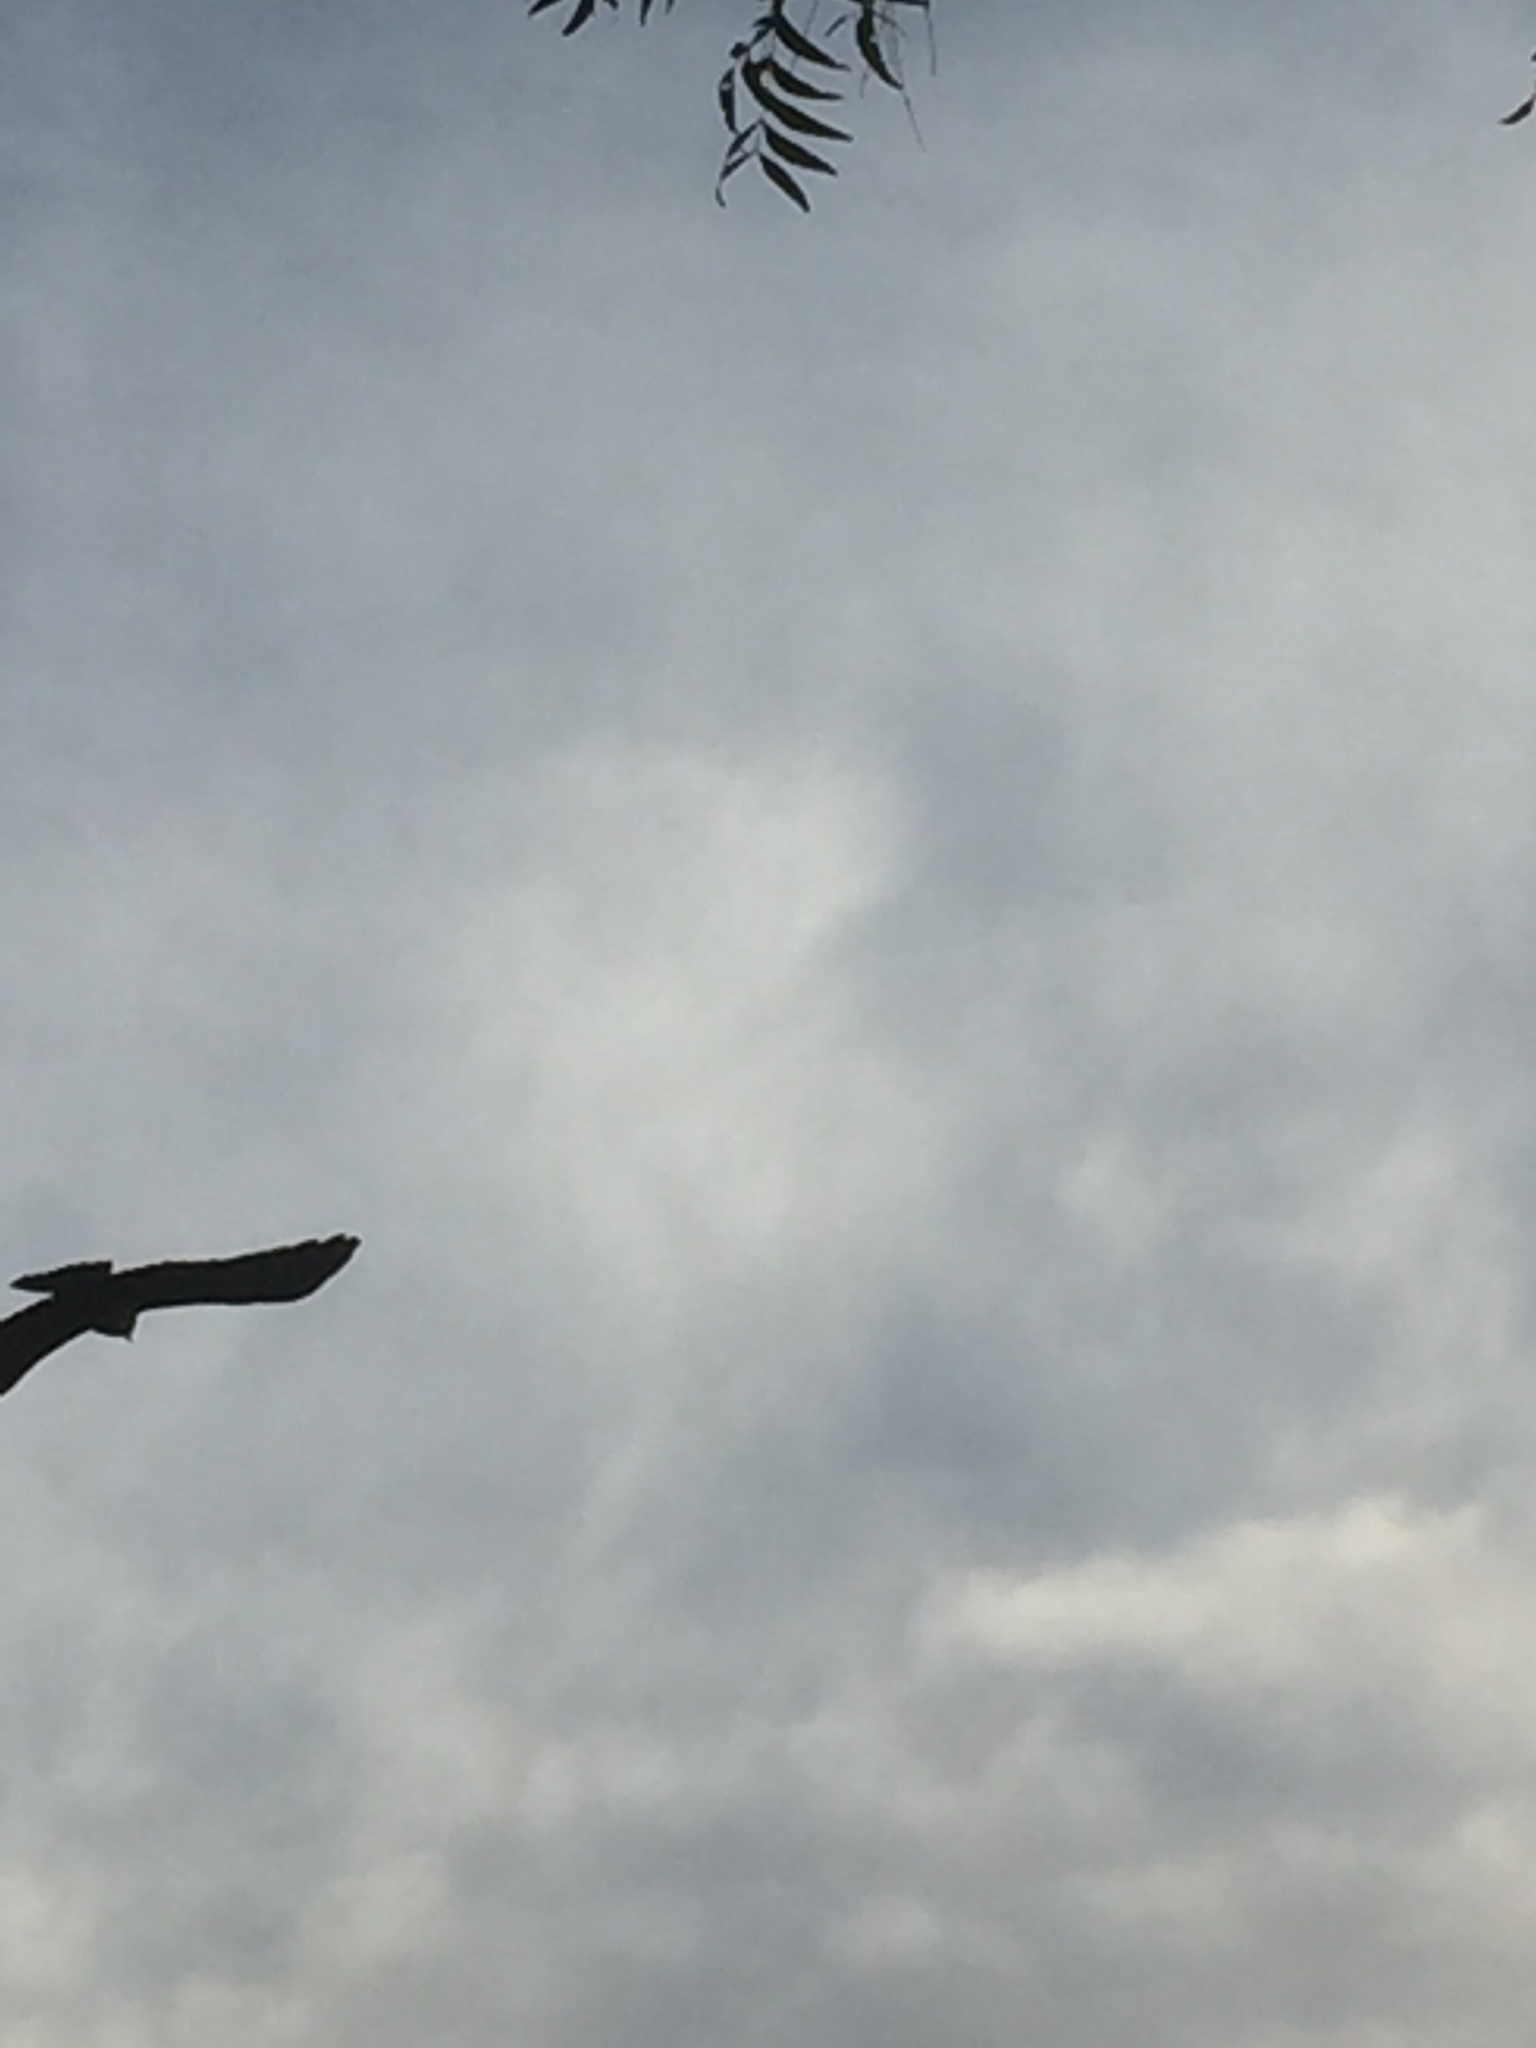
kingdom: Animalia
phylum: Chordata
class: Aves
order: Accipitriformes
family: Accipitridae
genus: Haliastur
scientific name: Haliastur indus
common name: Brahminy kite
